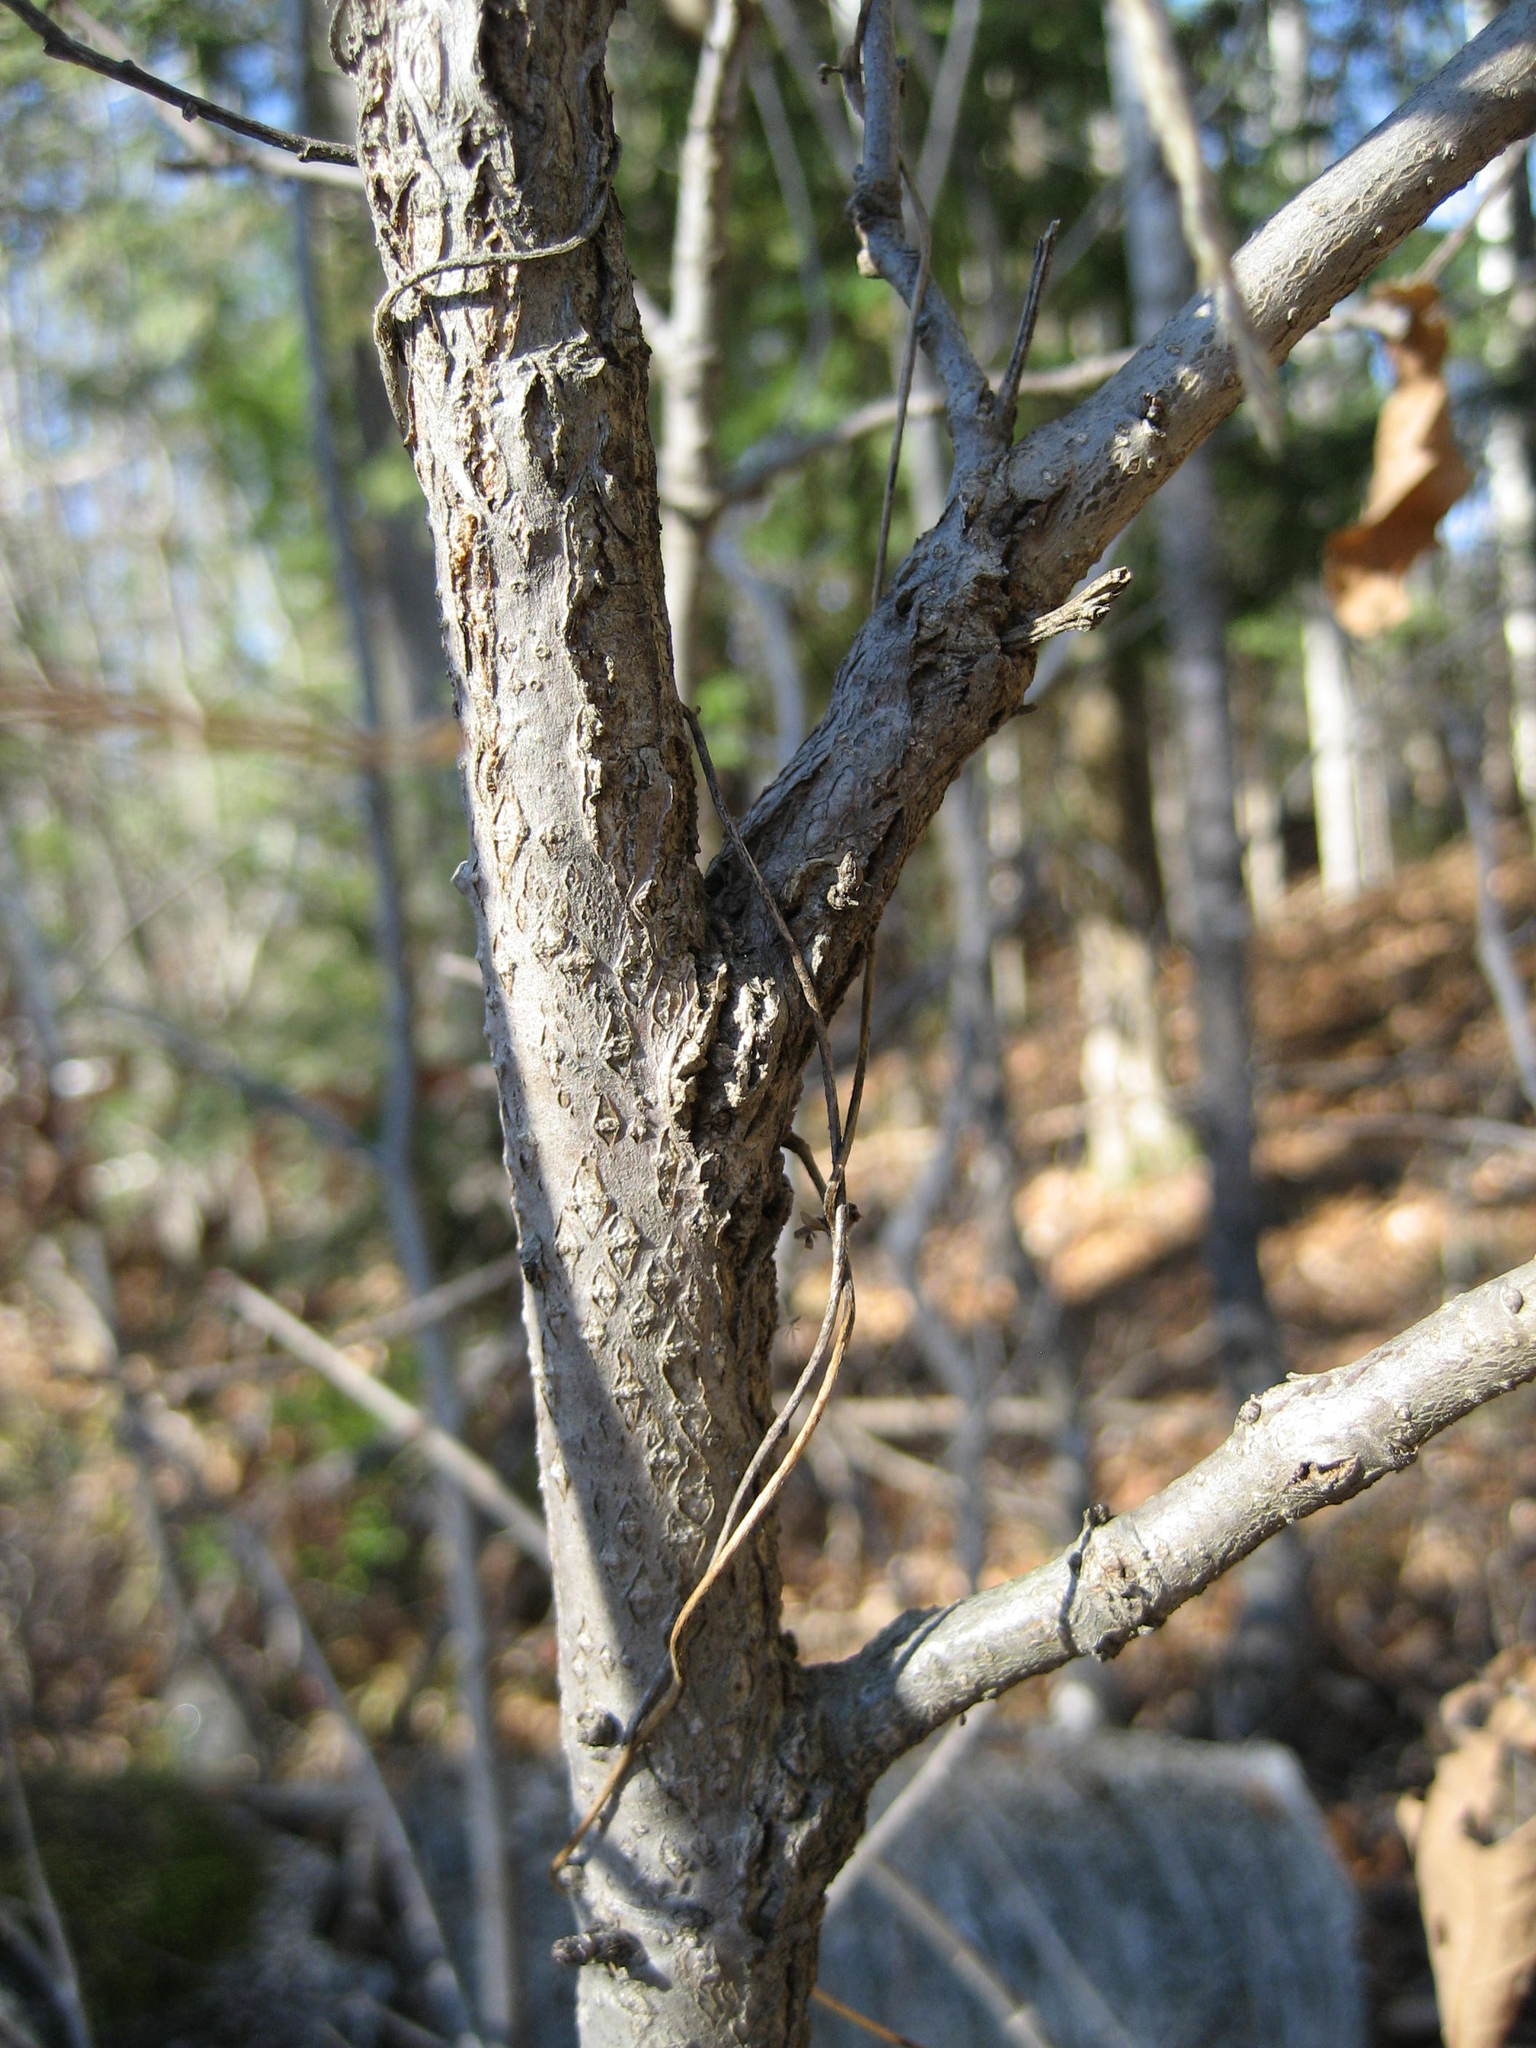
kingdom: Plantae
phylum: Tracheophyta
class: Magnoliopsida
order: Fagales
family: Fagaceae
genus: Quercus
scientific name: Quercus macrocarpa
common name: Bur oak
